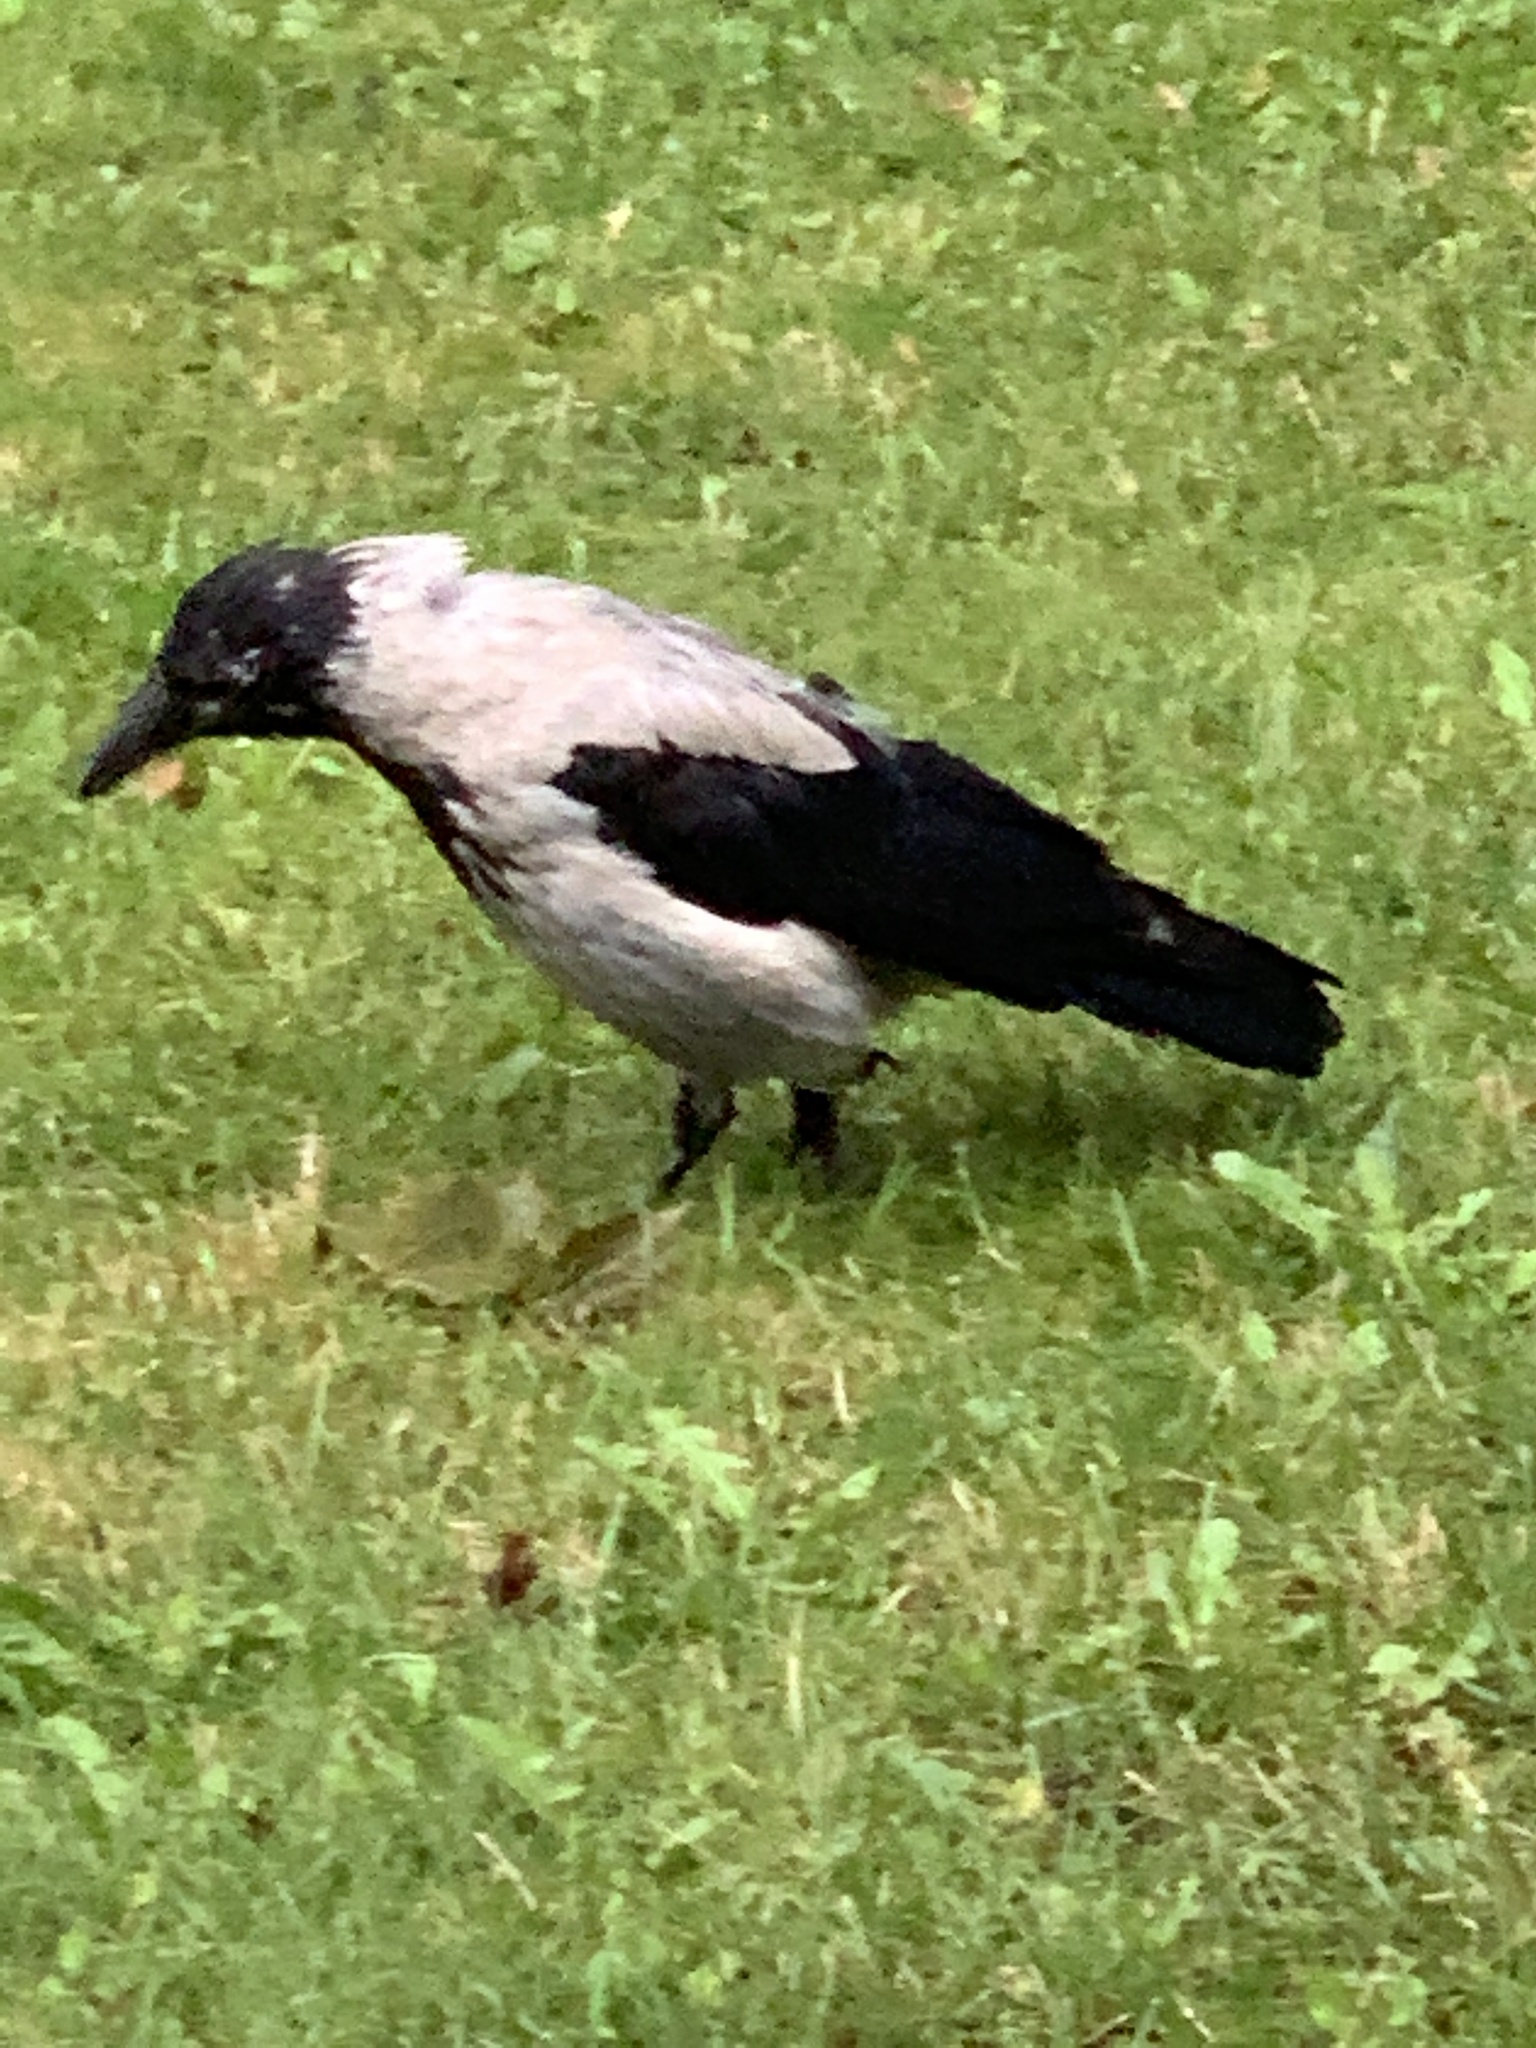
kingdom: Animalia
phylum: Chordata
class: Aves
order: Passeriformes
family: Corvidae
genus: Corvus
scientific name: Corvus cornix
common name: Hooded crow
